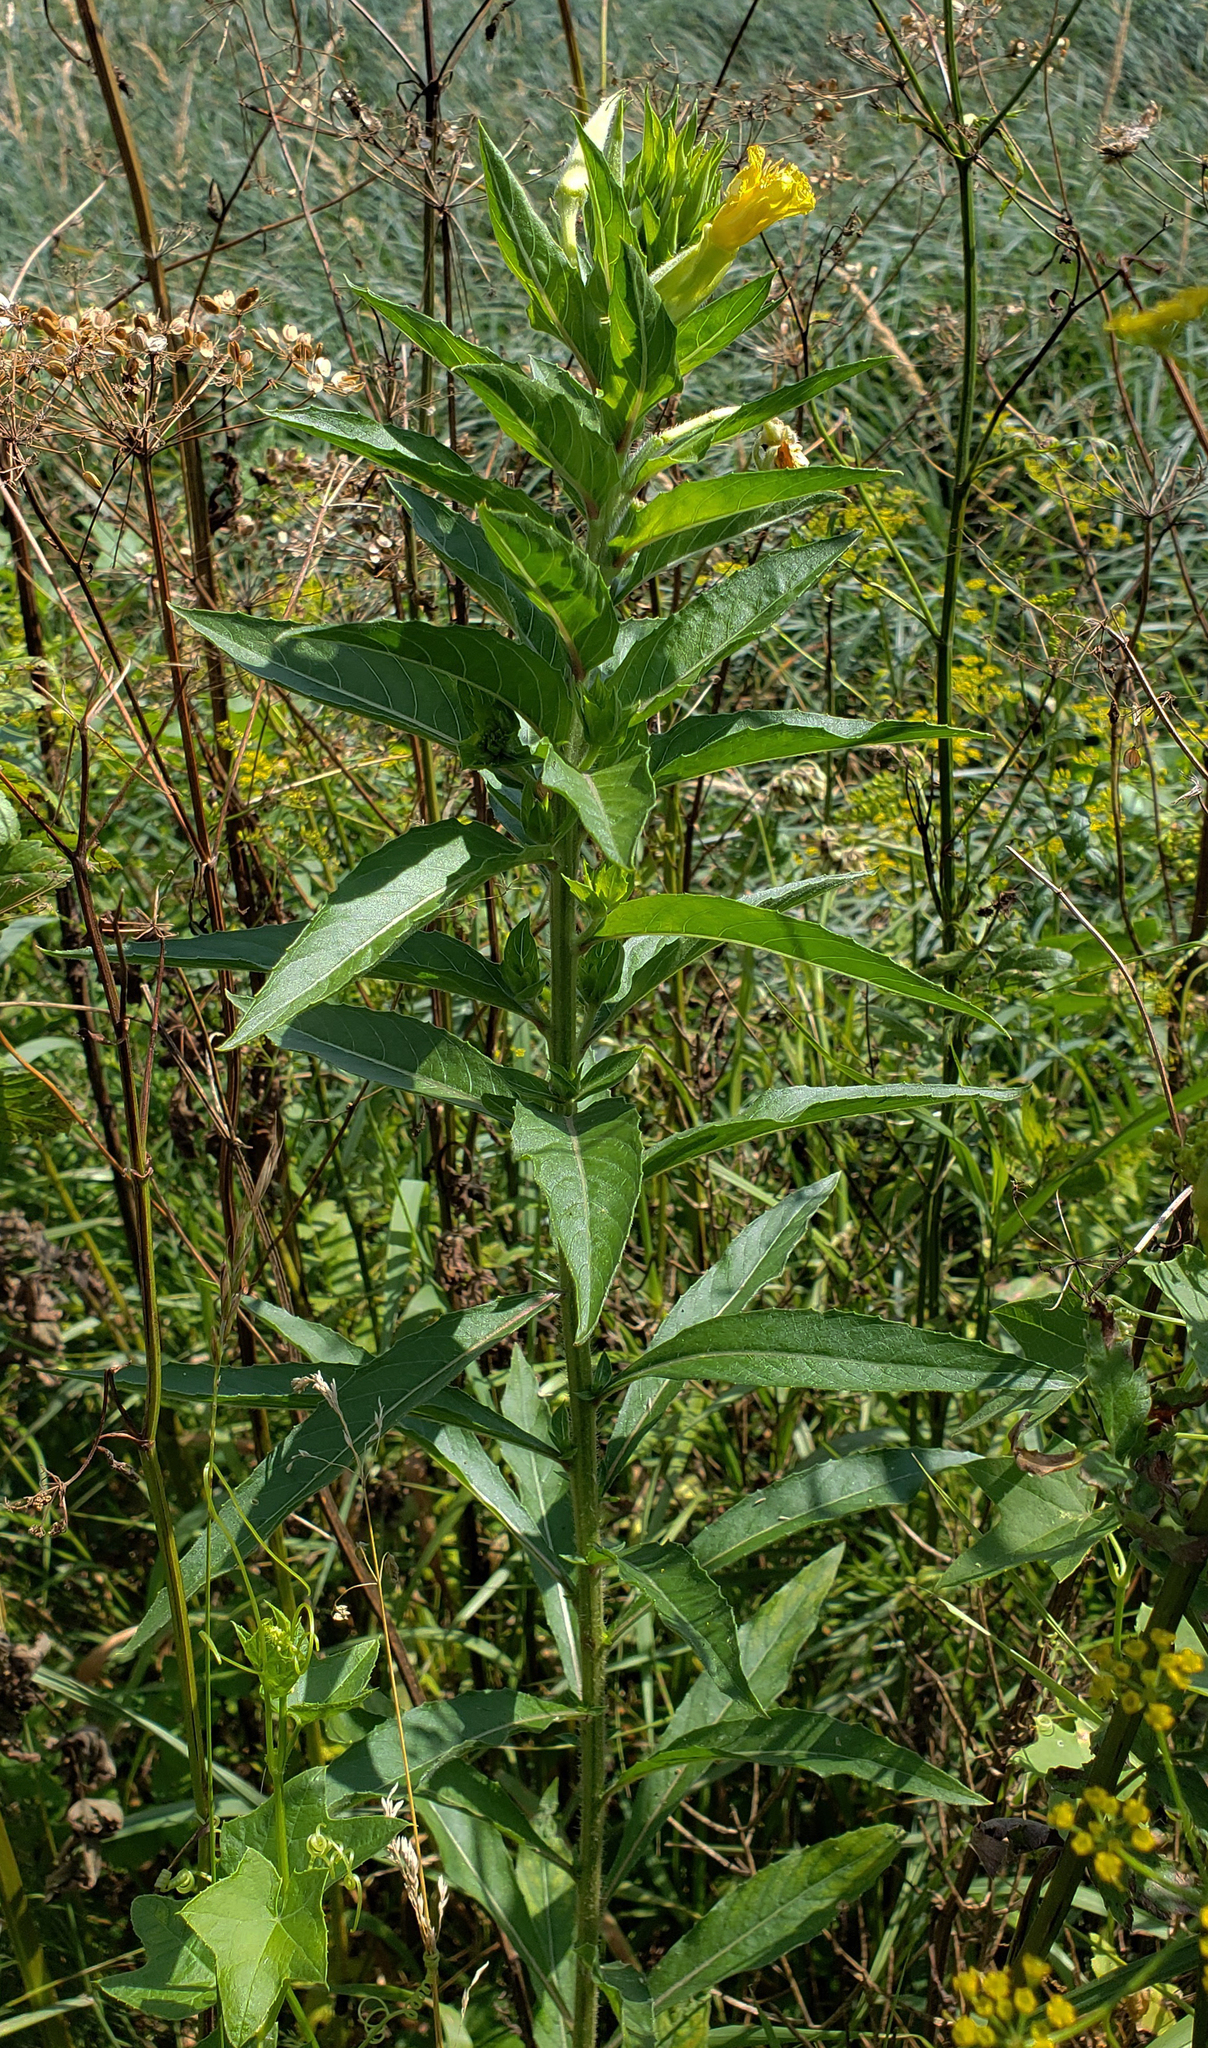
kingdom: Plantae
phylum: Tracheophyta
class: Magnoliopsida
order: Myrtales
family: Onagraceae
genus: Oenothera
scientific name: Oenothera biennis
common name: Common evening-primrose
